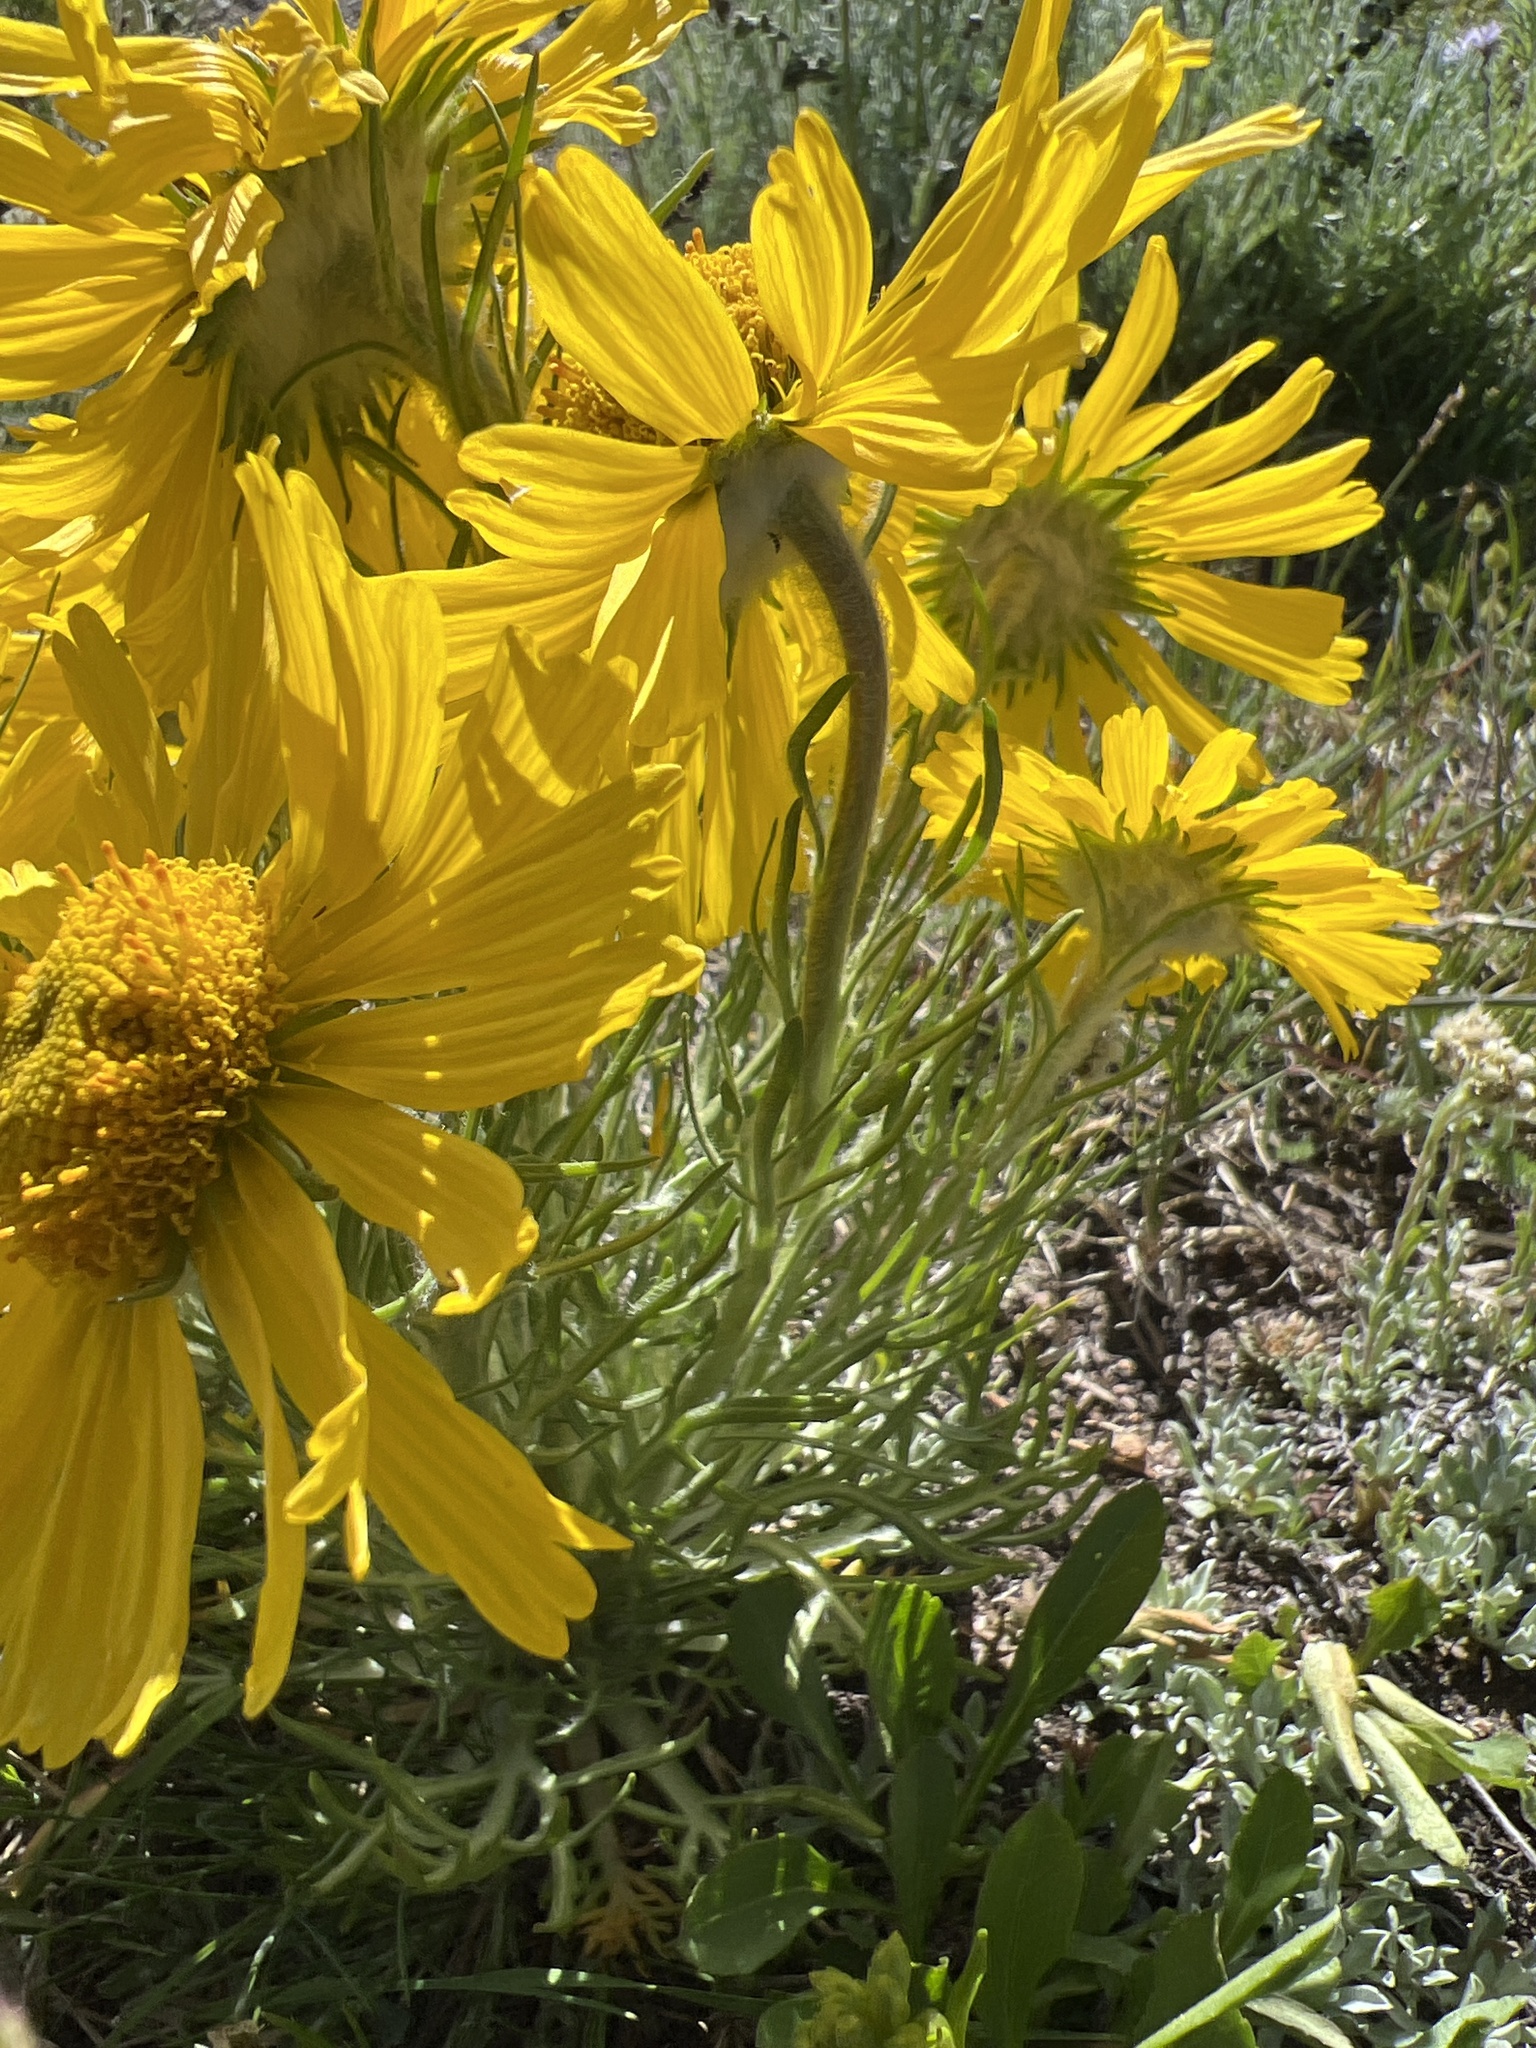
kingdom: Plantae
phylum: Tracheophyta
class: Magnoliopsida
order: Asterales
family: Asteraceae
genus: Hymenoxys
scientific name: Hymenoxys grandiflora
